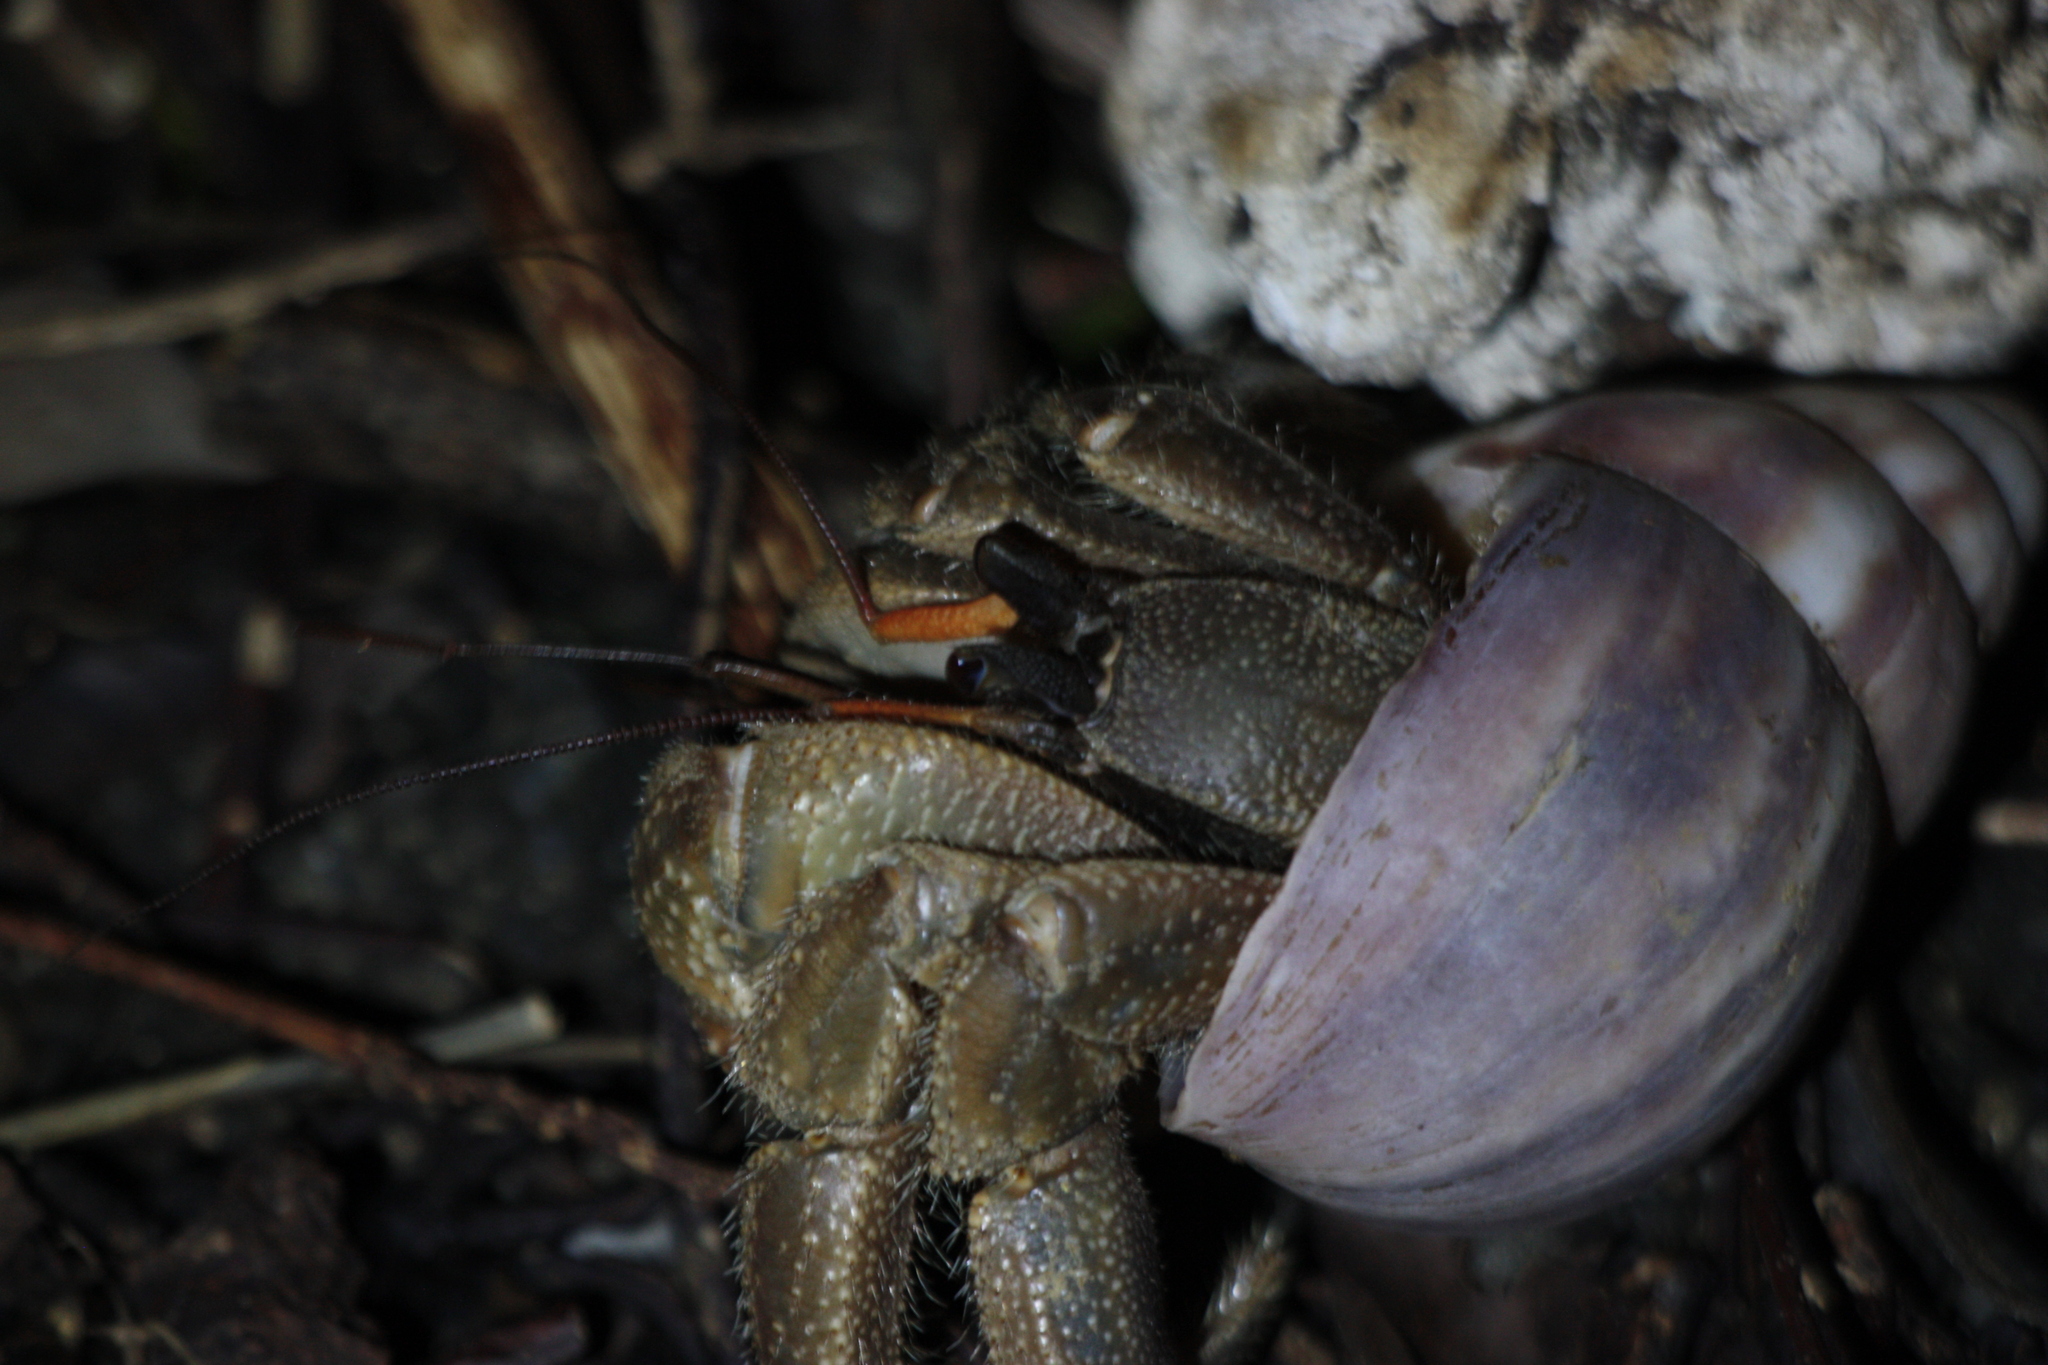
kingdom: Animalia
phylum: Arthropoda
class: Malacostraca
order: Decapoda
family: Coenobitidae
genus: Coenobita
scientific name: Coenobita cavipes
